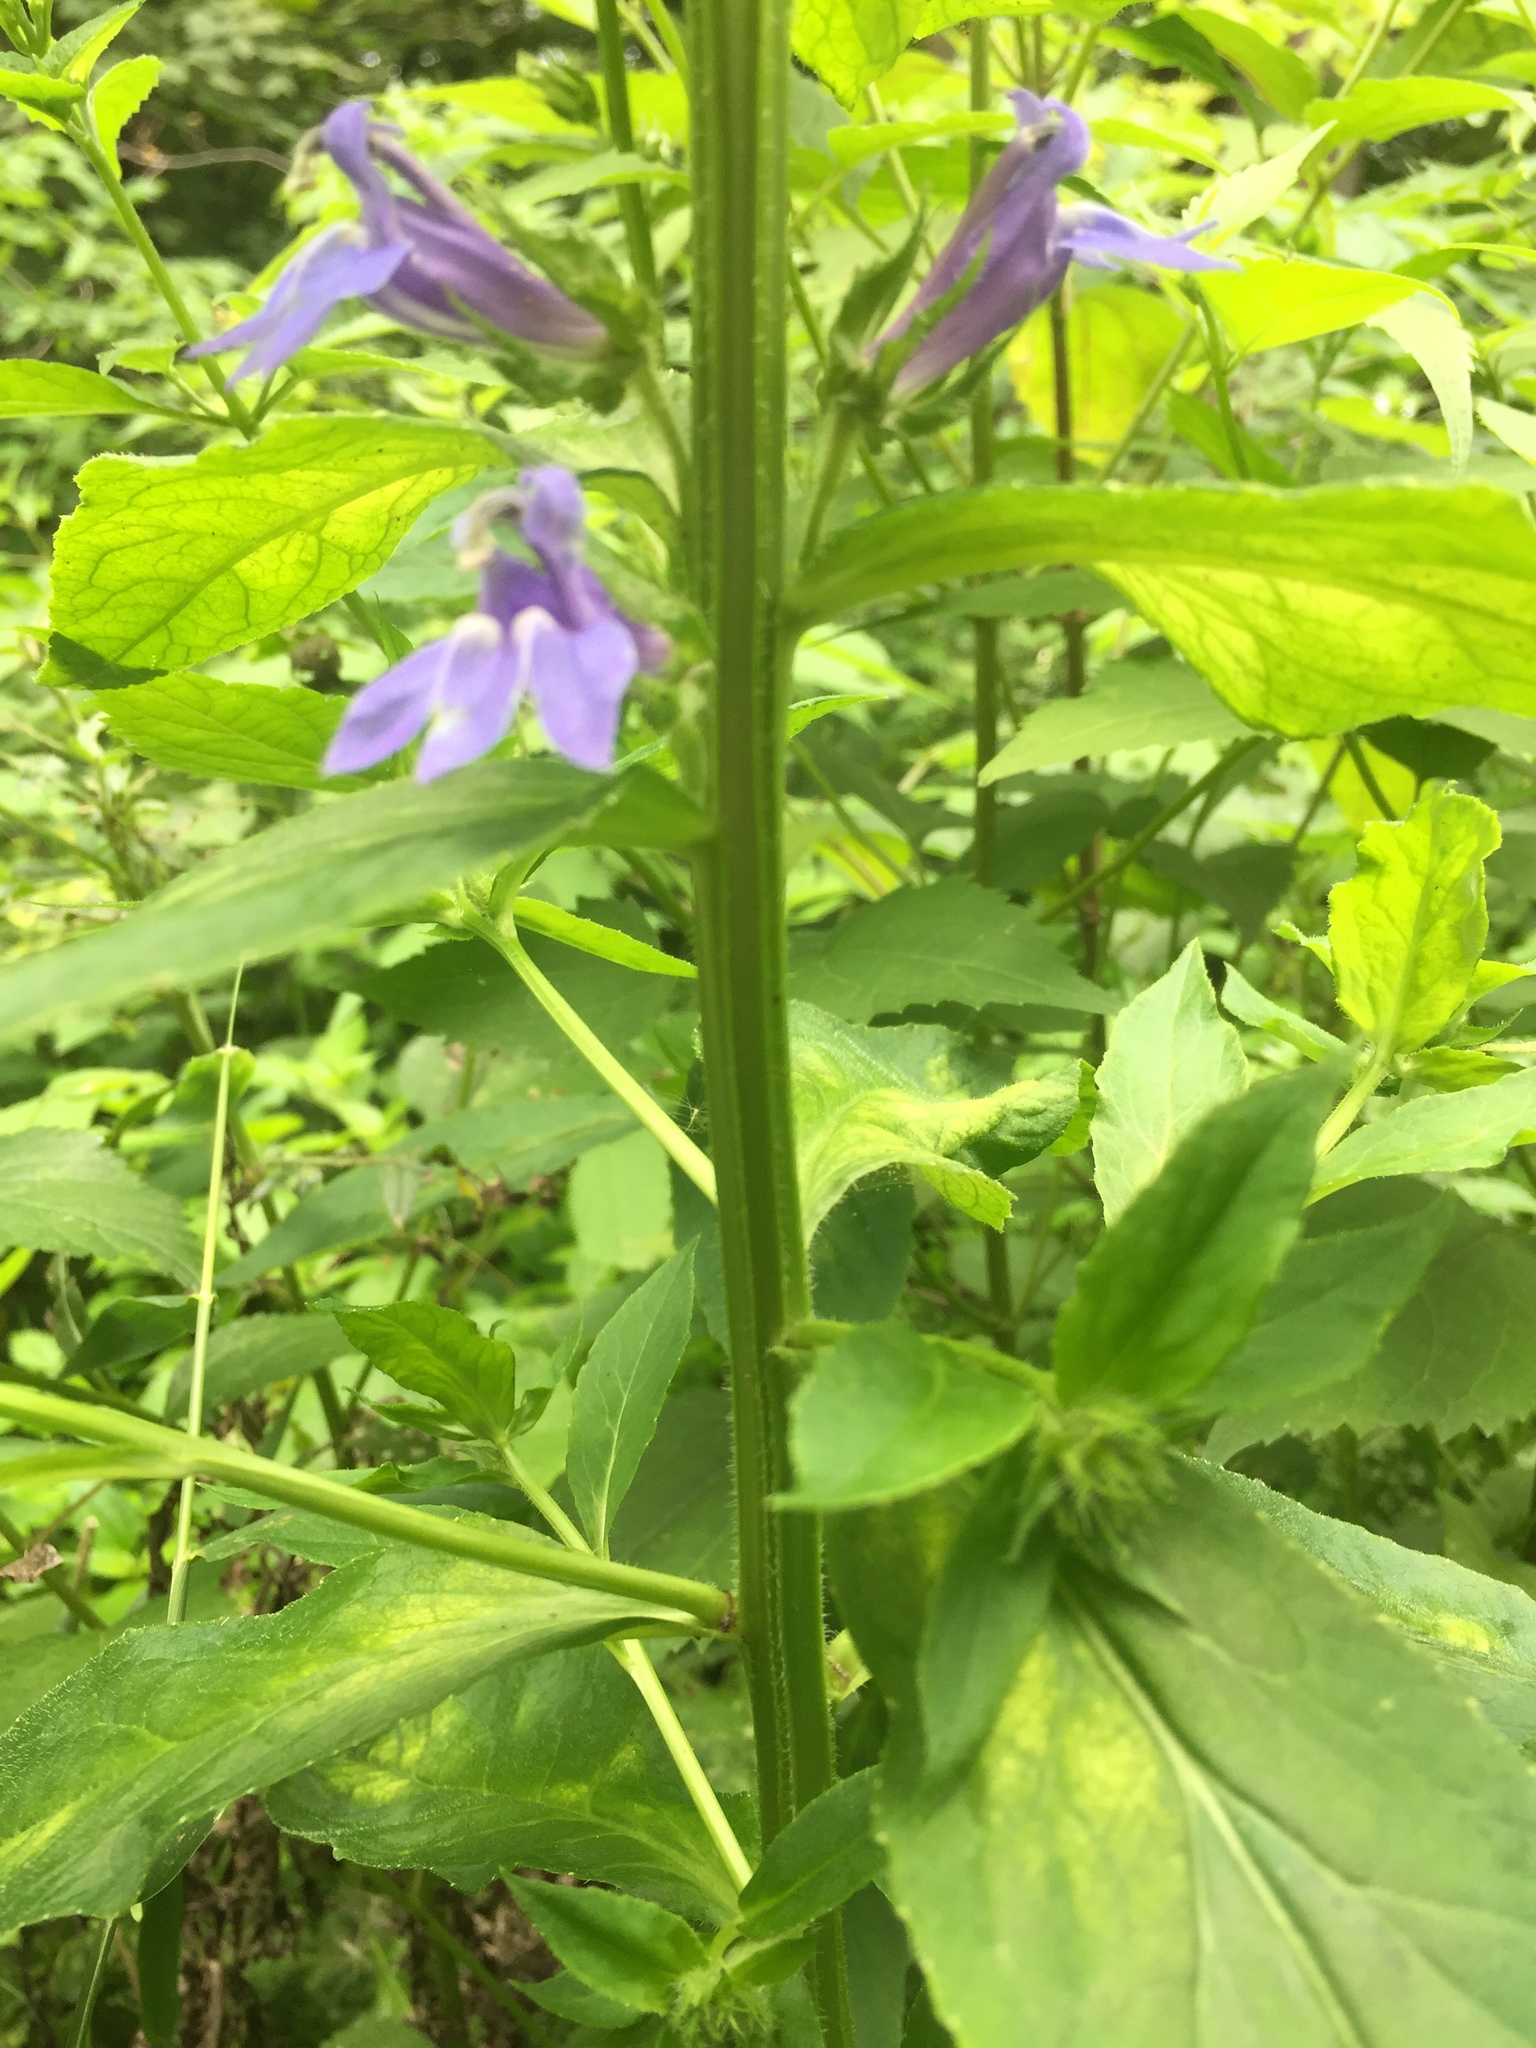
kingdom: Plantae
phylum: Tracheophyta
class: Magnoliopsida
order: Asterales
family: Campanulaceae
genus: Lobelia
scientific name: Lobelia siphilitica
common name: Great lobelia
